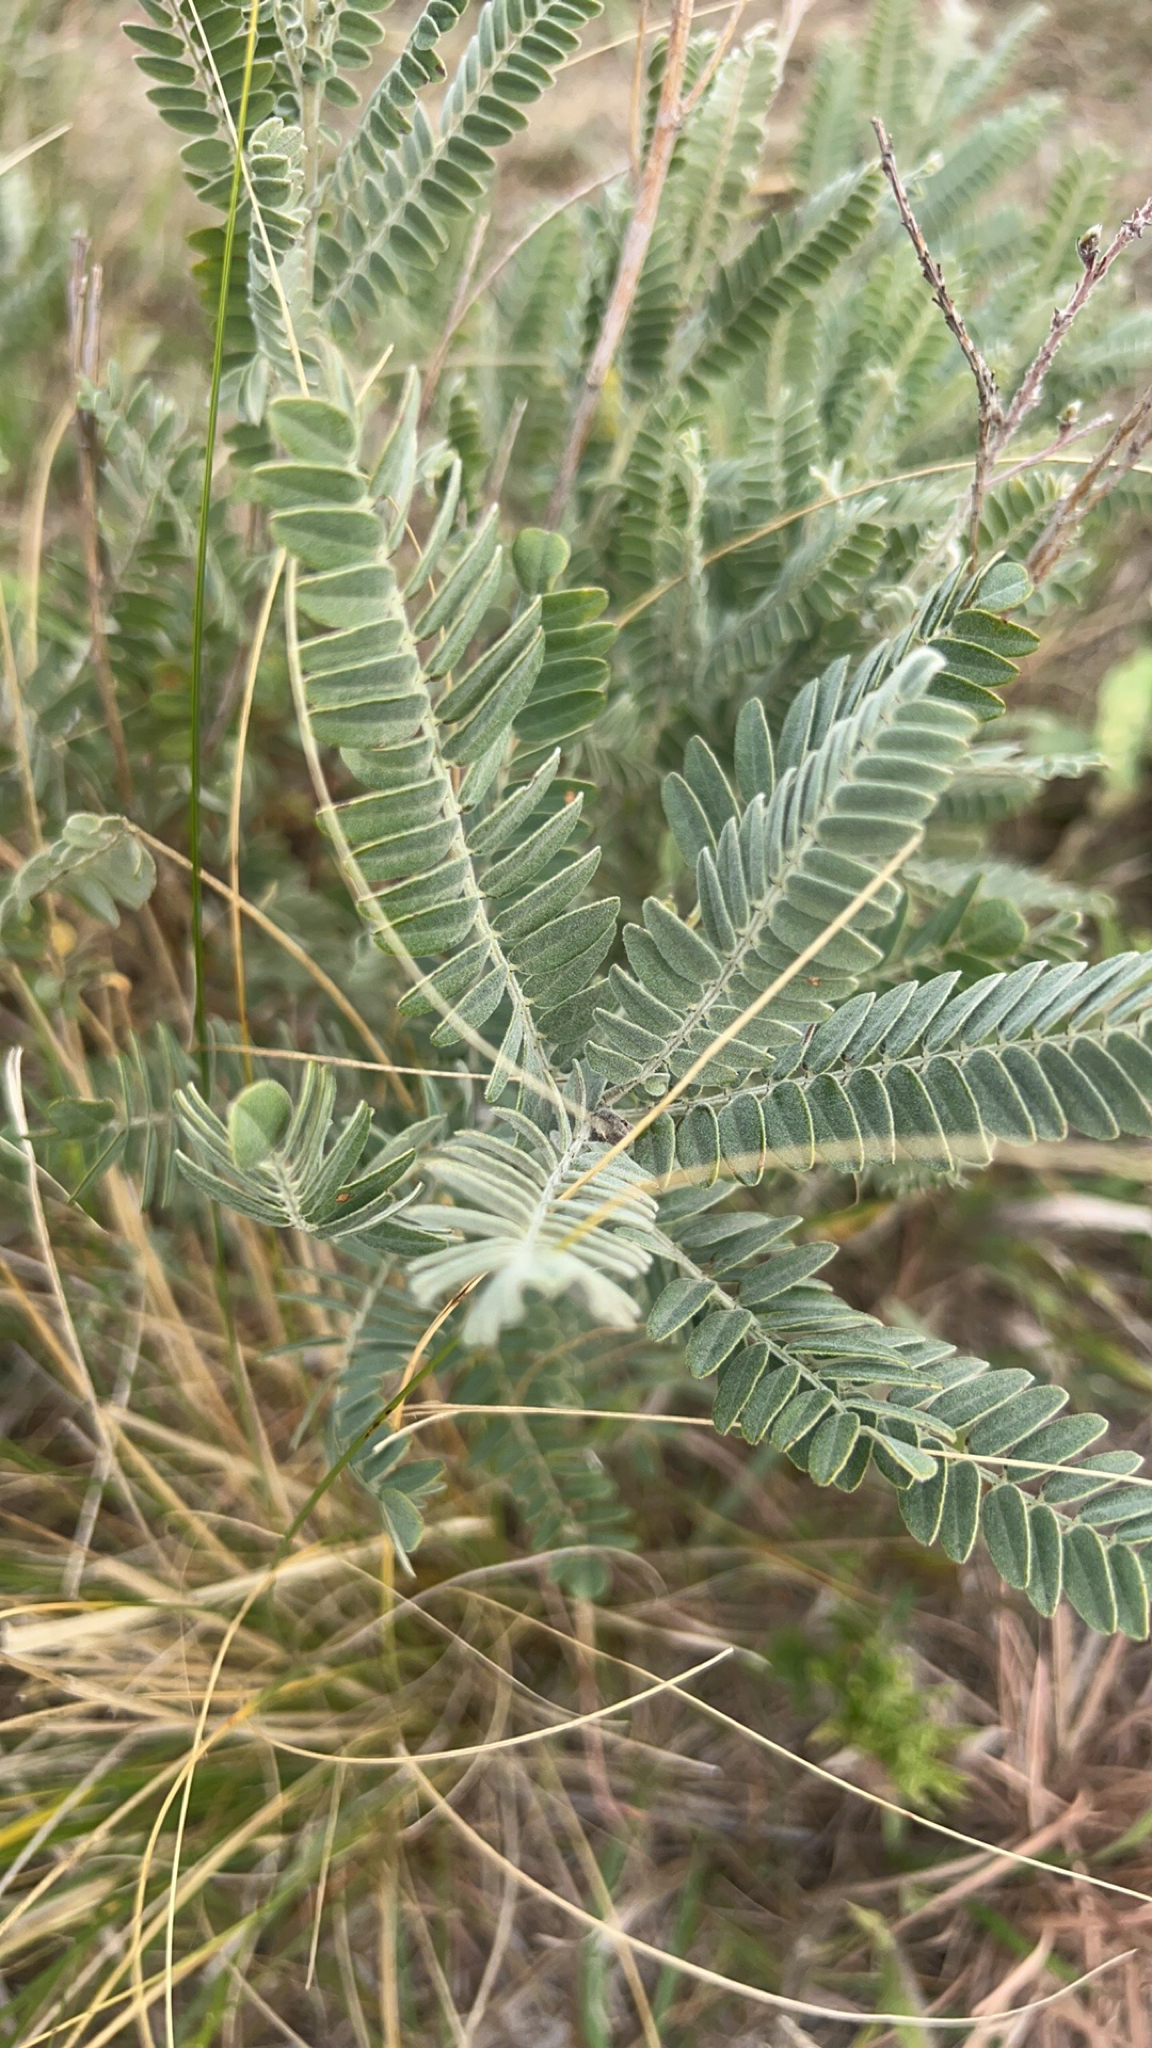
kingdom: Plantae
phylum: Tracheophyta
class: Magnoliopsida
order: Fabales
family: Fabaceae
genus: Amorpha
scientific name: Amorpha canescens
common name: Leadplant
